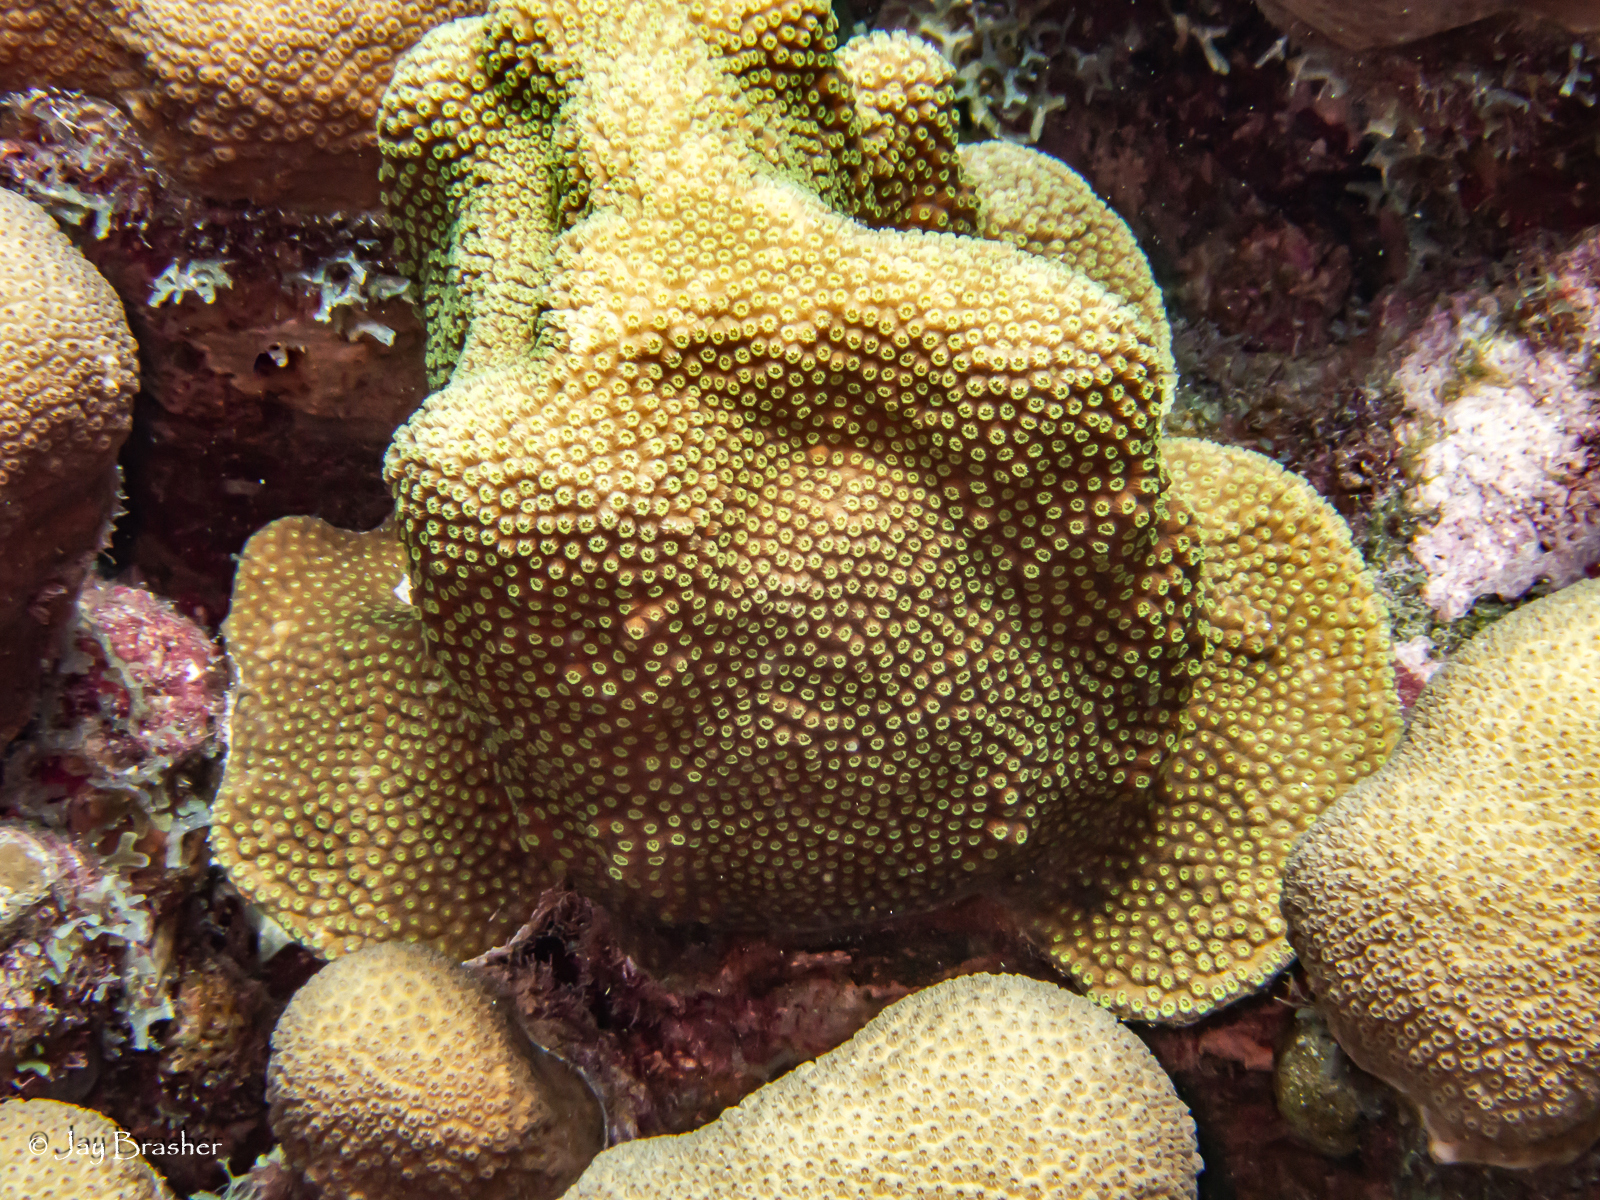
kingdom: Animalia
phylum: Cnidaria
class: Anthozoa
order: Scleractinia
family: Merulinidae
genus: Orbicella
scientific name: Orbicella faveolata
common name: Mountainous star coral
